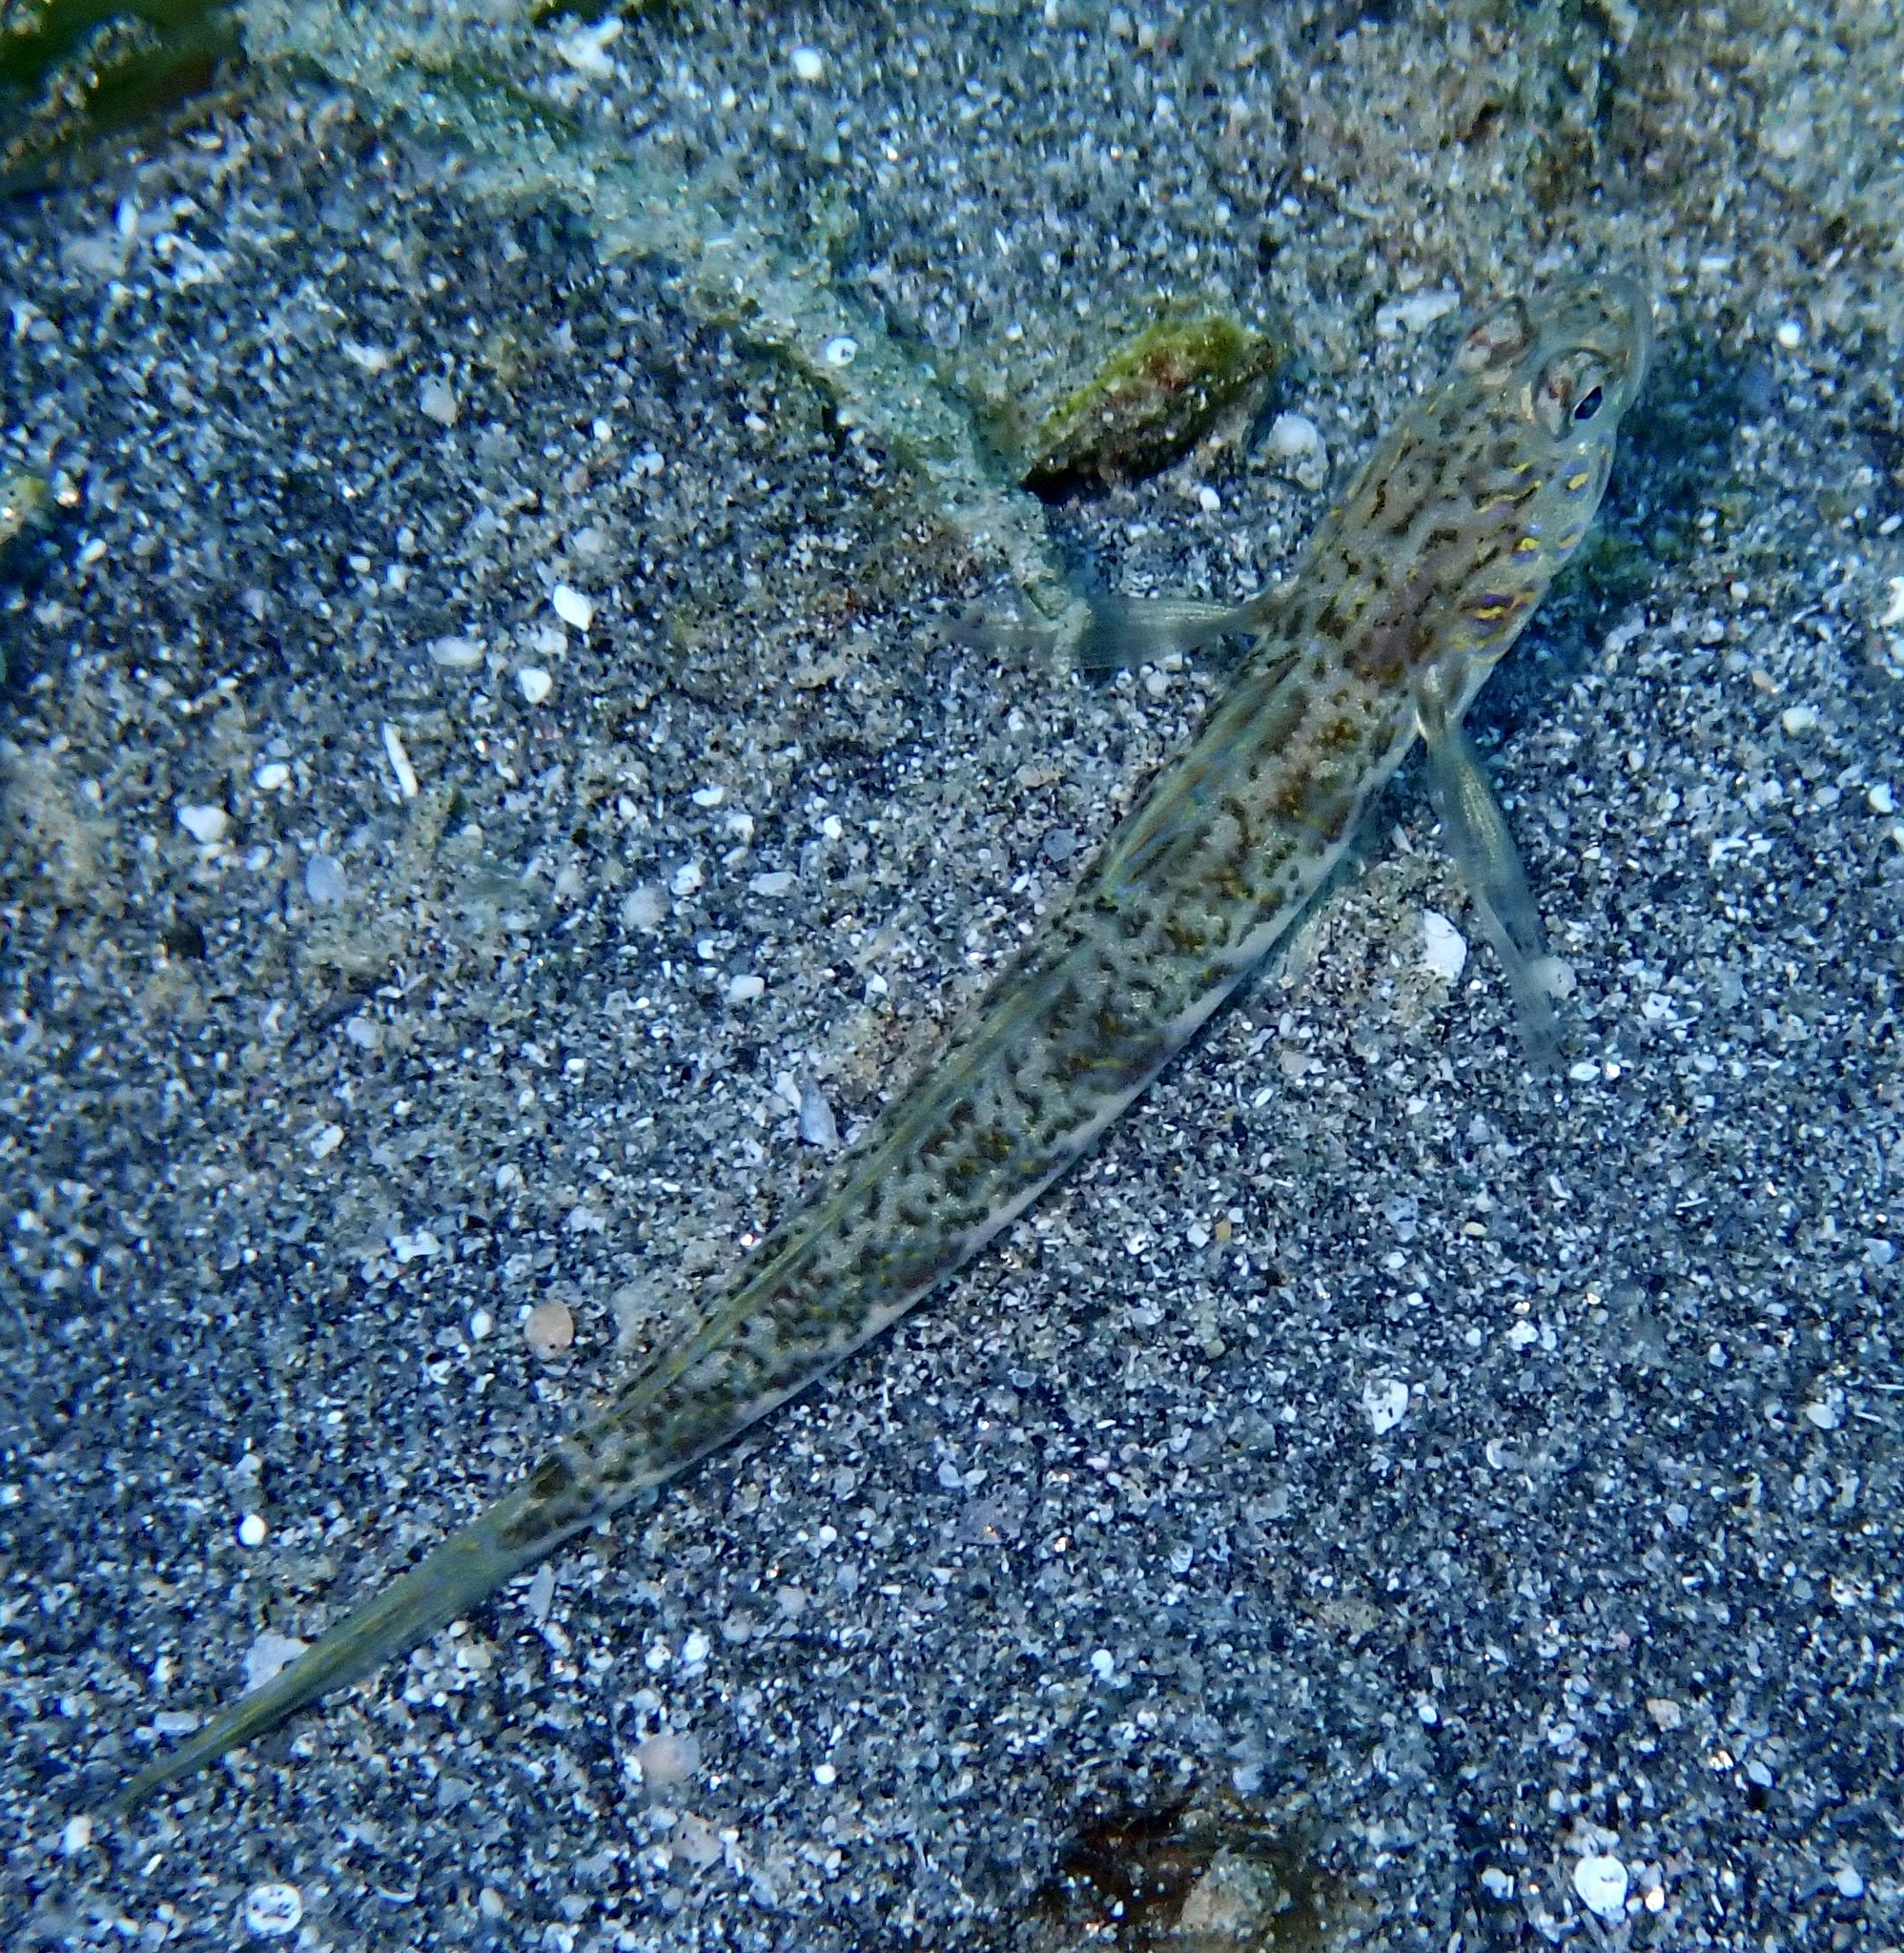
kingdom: Animalia
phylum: Chordata
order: Perciformes
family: Gobiidae
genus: Vanderhorstia
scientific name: Vanderhorstia delagoae
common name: Candystick goby
